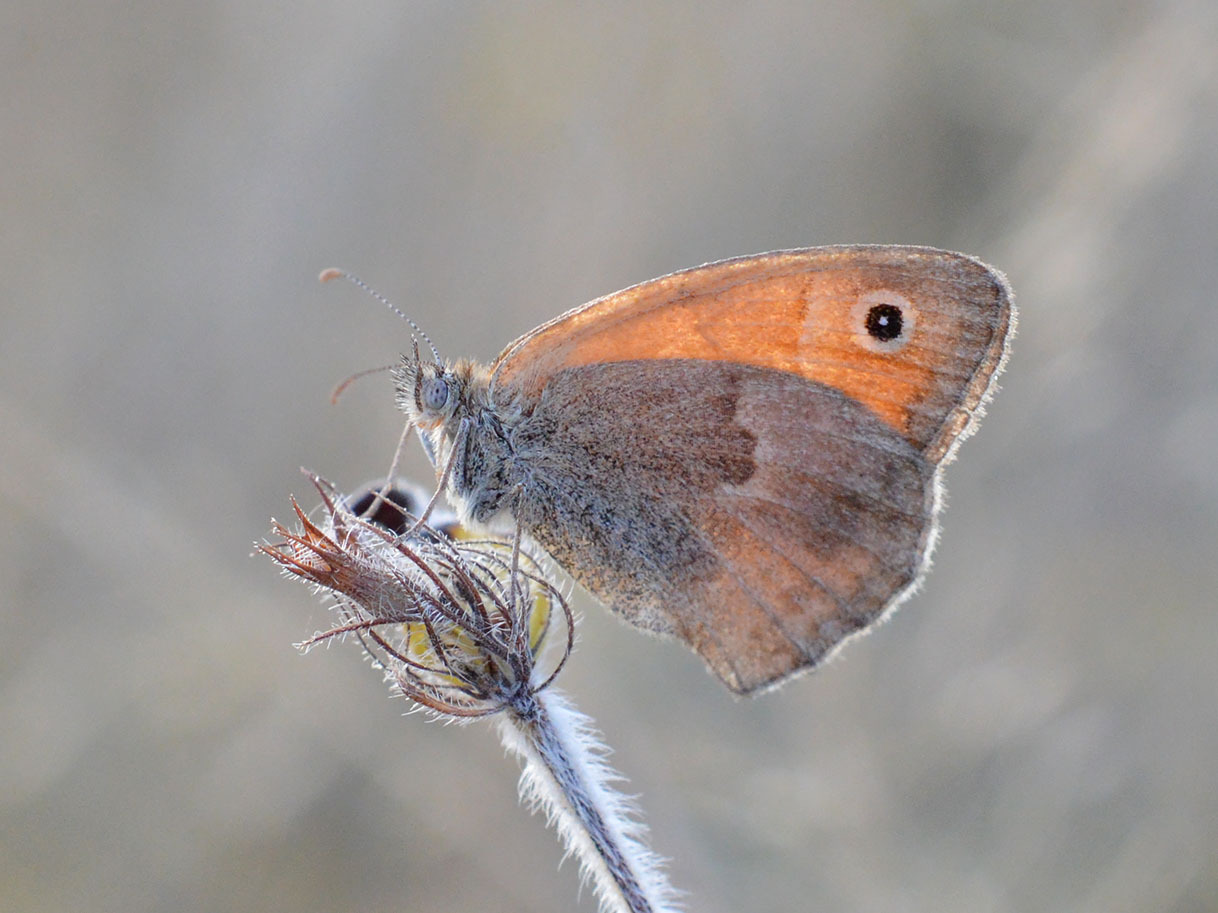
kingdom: Animalia
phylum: Arthropoda
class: Insecta
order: Lepidoptera
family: Nymphalidae
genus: Coenonympha
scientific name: Coenonympha pamphilus
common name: Small heath
